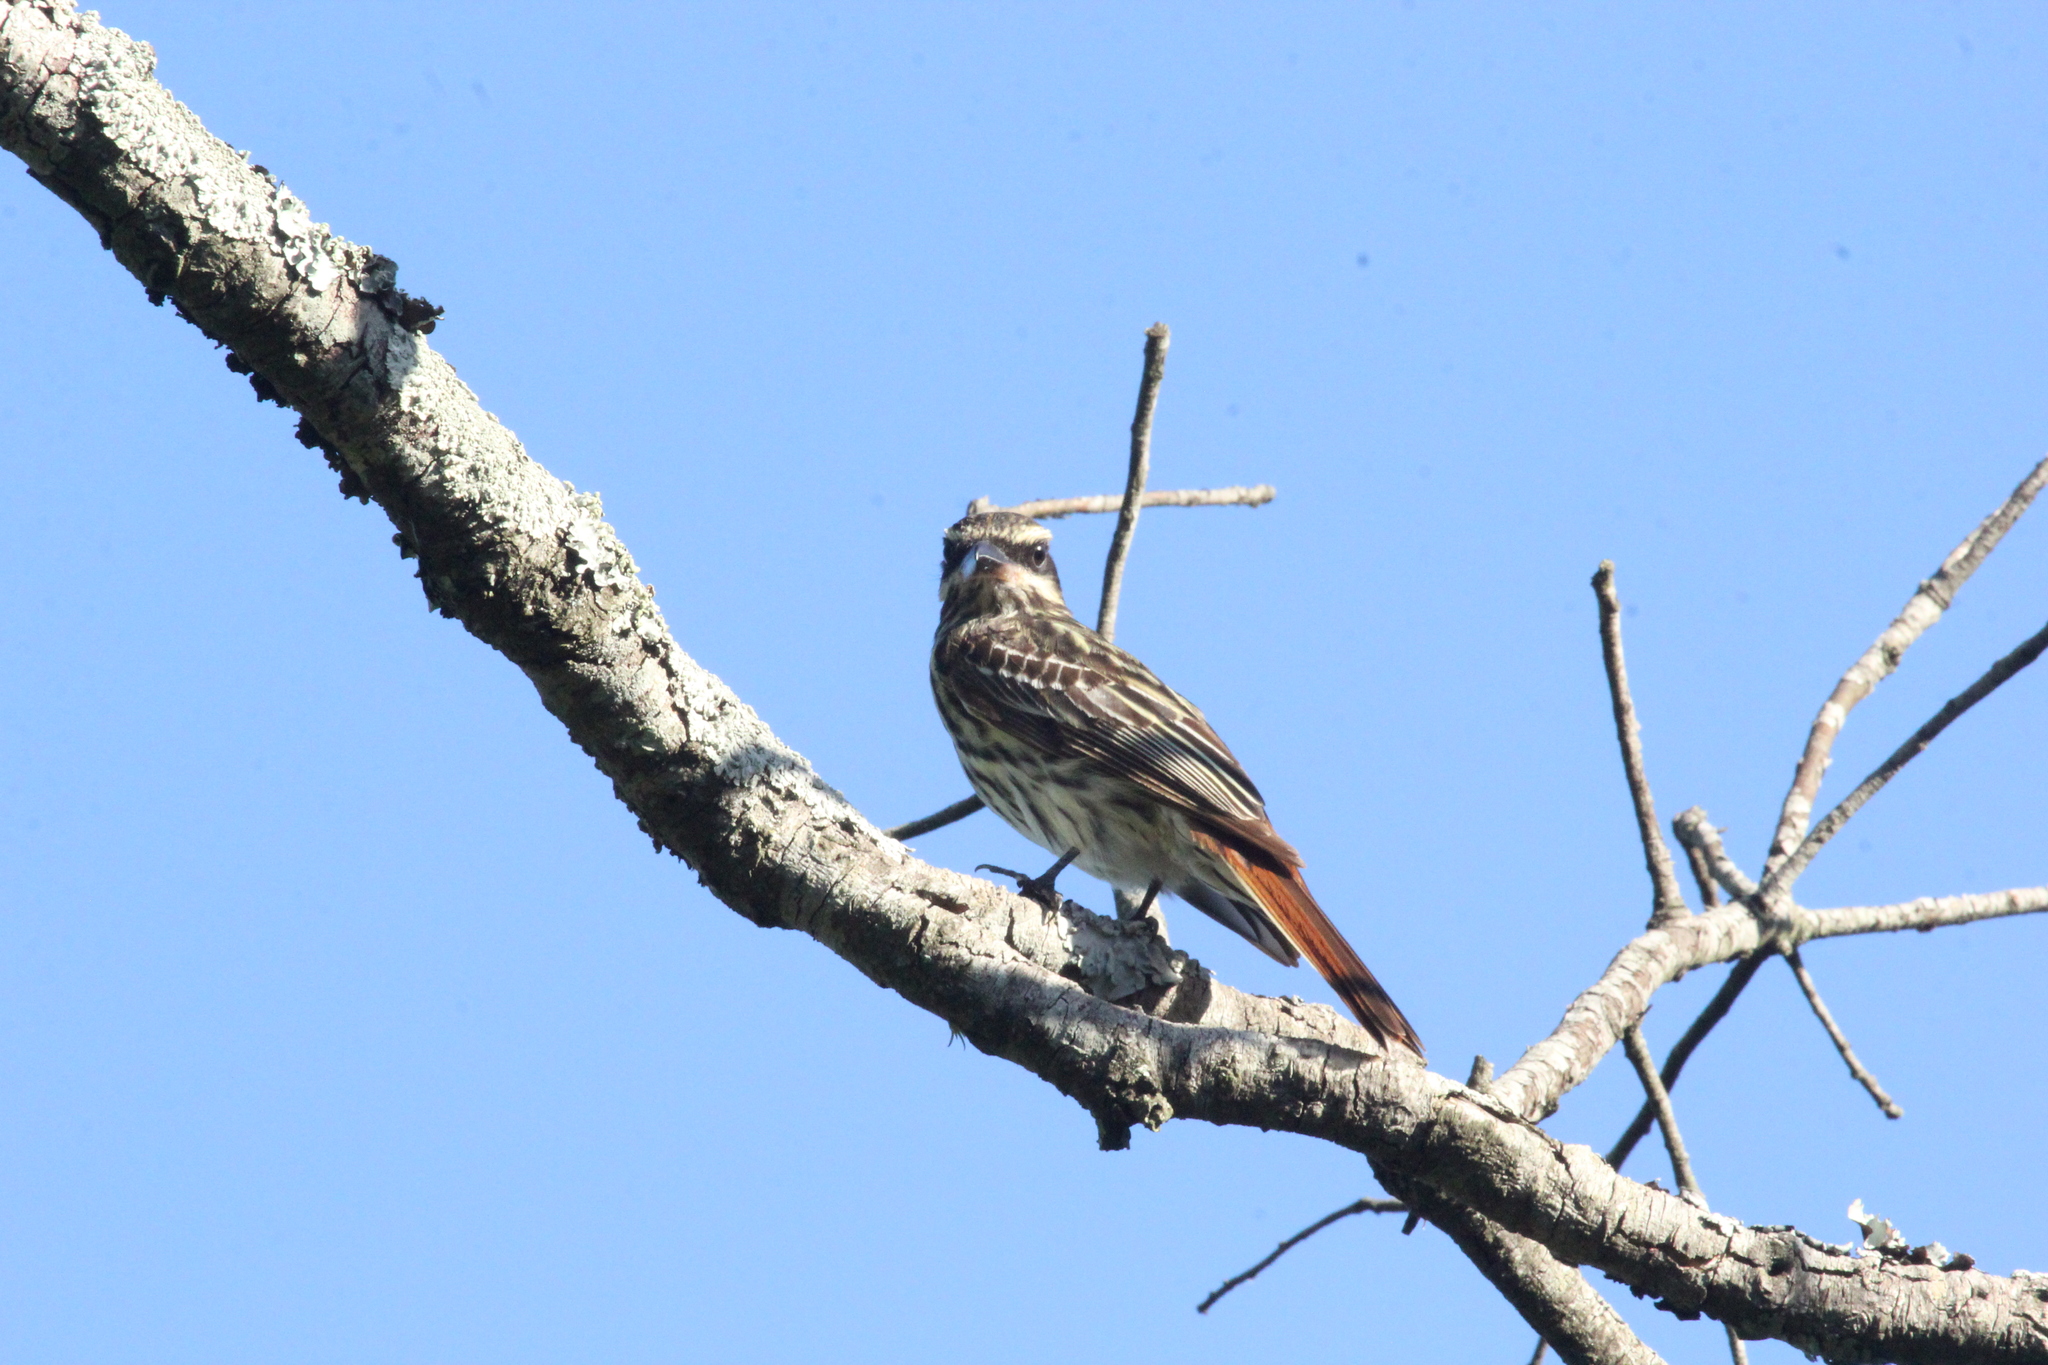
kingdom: Animalia
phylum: Chordata
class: Aves
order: Passeriformes
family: Tyrannidae
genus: Myiodynastes
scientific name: Myiodynastes maculatus
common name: Streaked flycatcher
